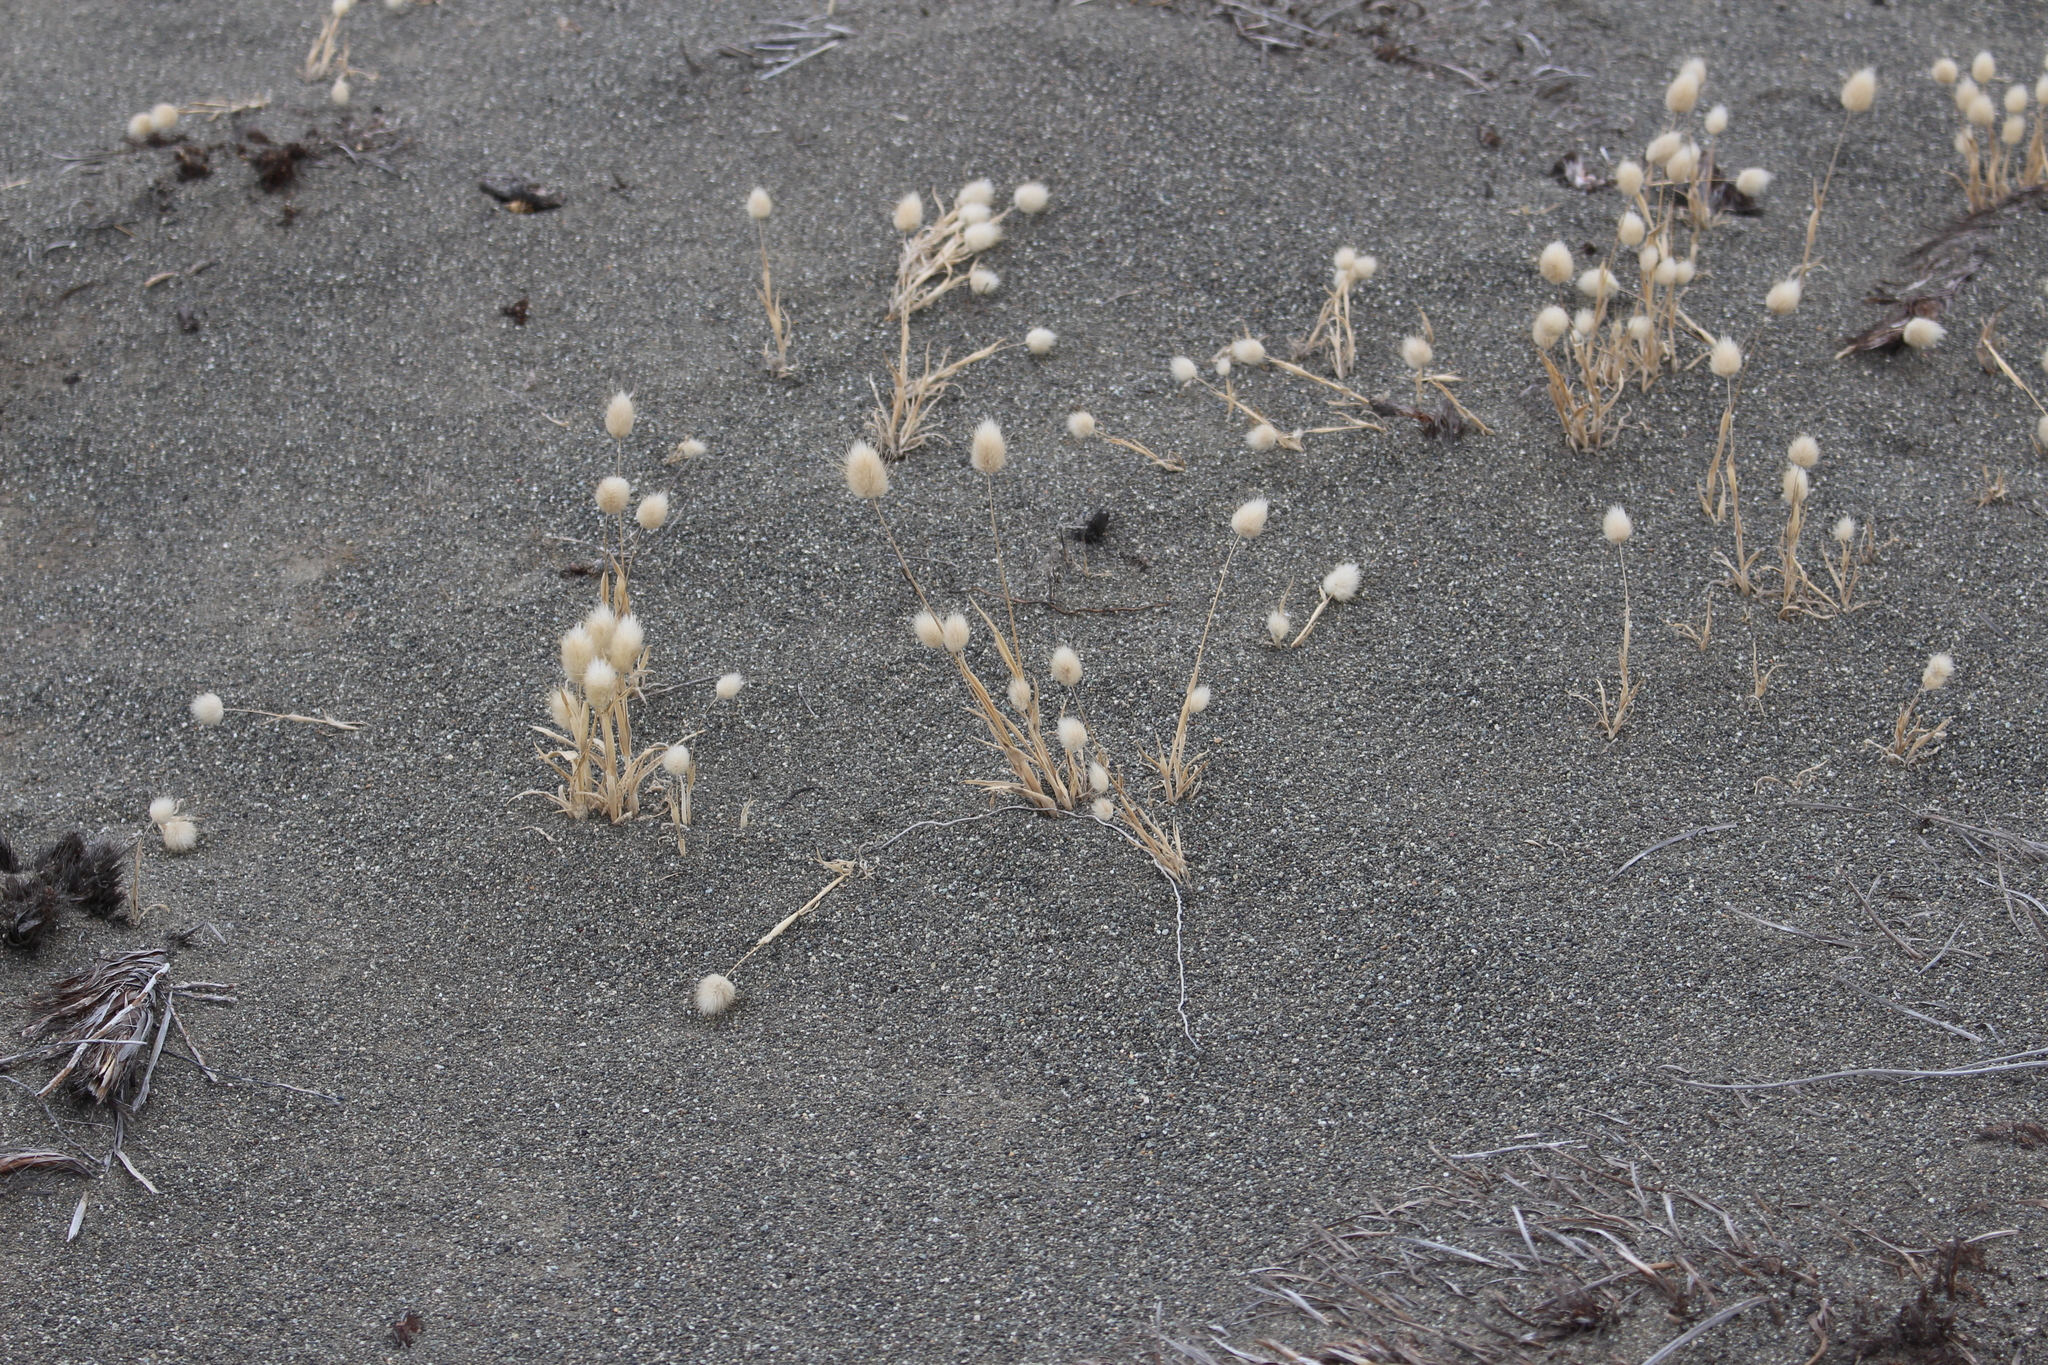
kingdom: Plantae
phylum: Tracheophyta
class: Liliopsida
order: Poales
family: Poaceae
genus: Lagurus
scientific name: Lagurus ovatus
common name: Hare's-tail
